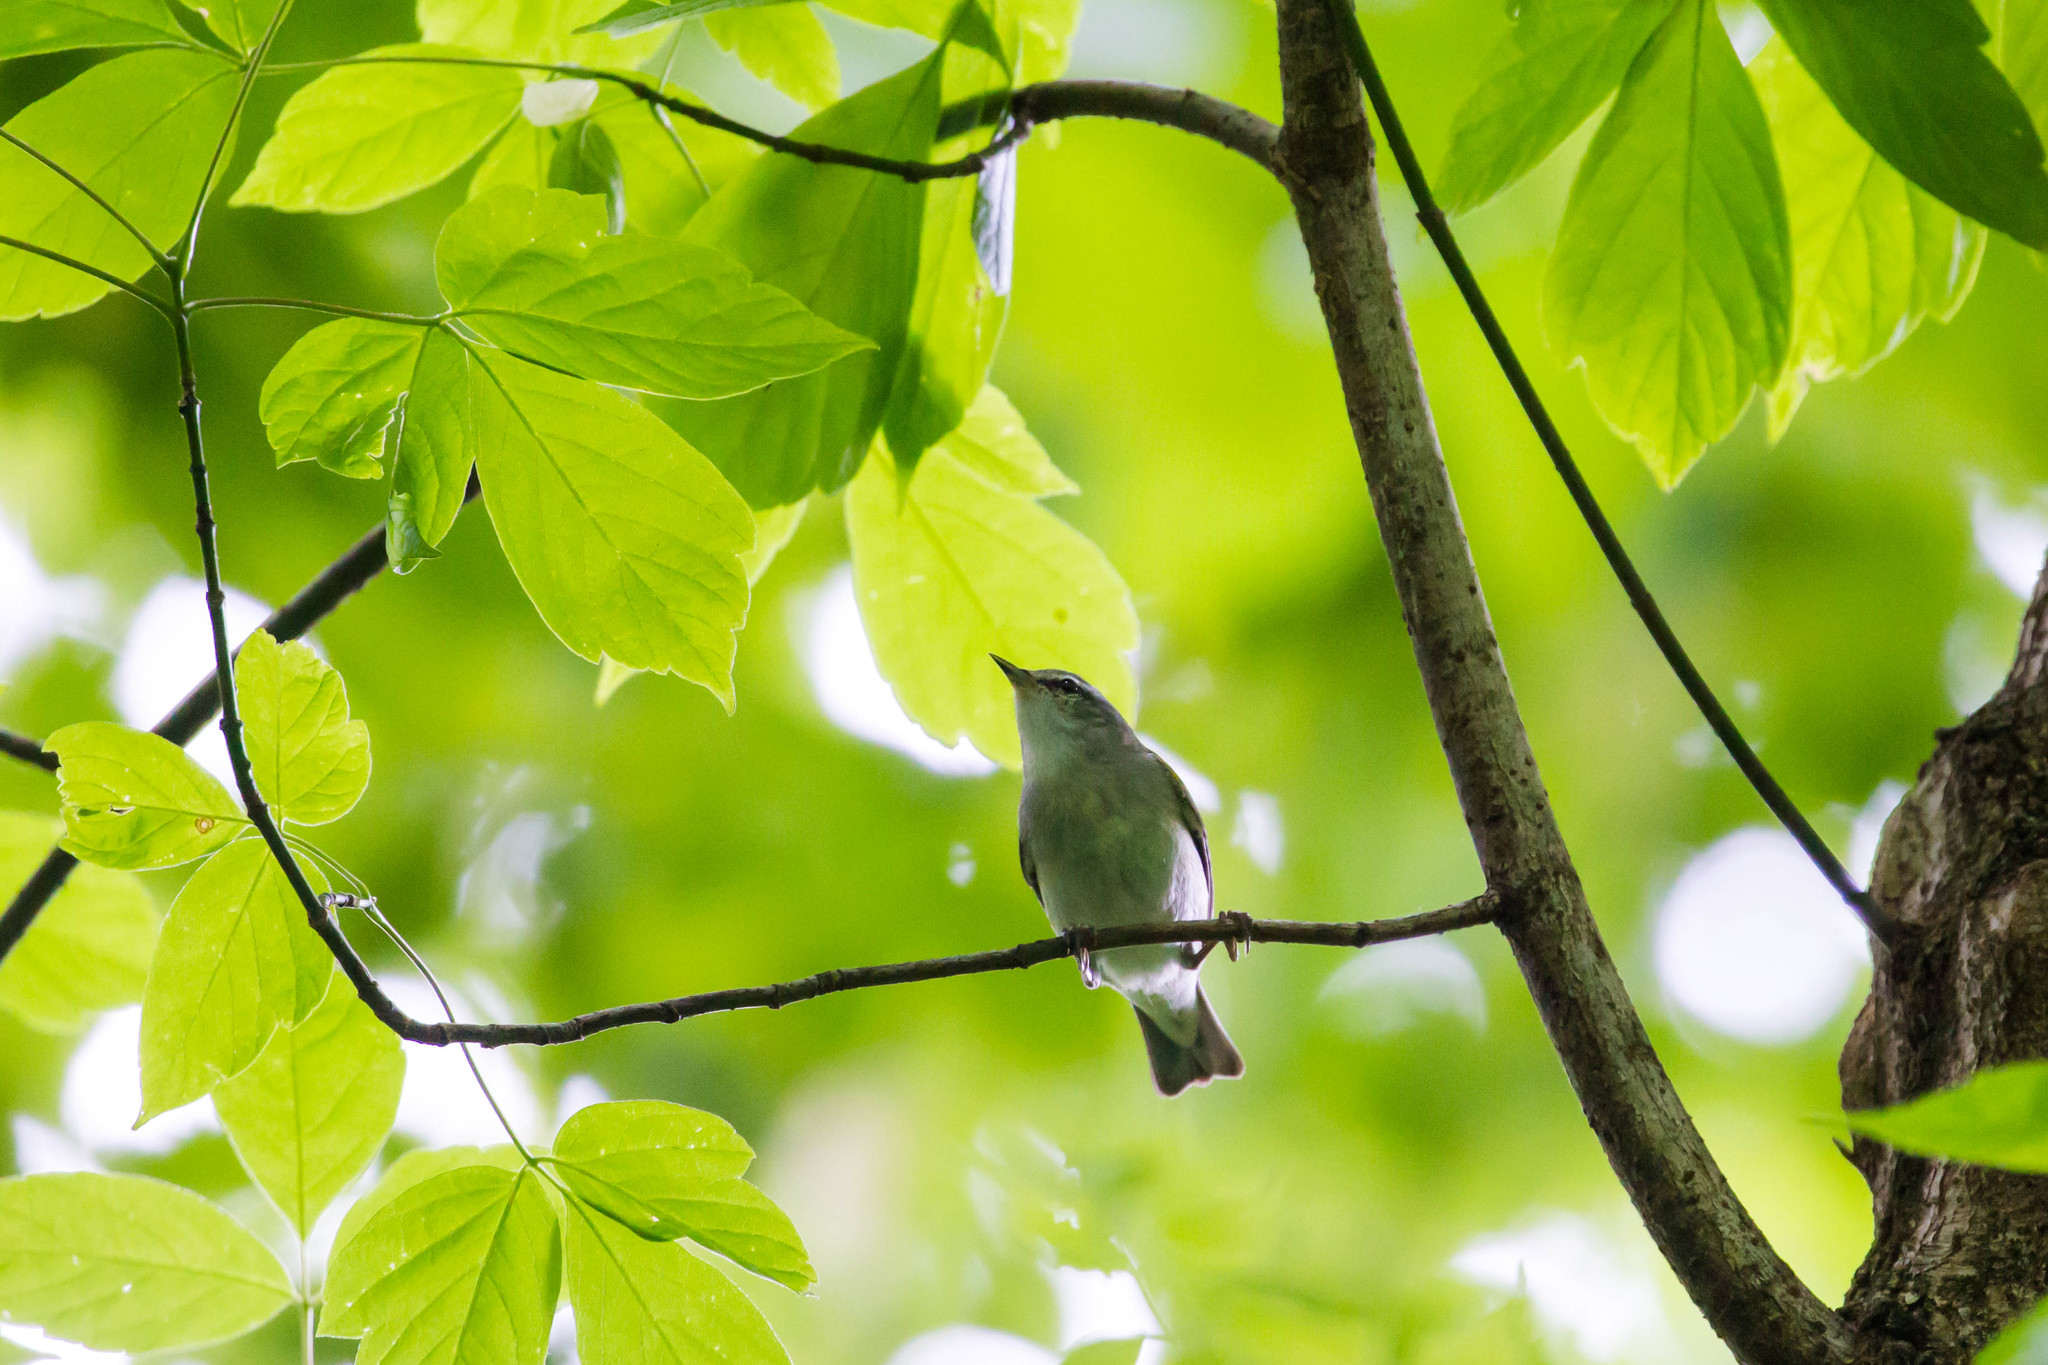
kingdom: Animalia
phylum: Chordata
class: Aves
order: Passeriformes
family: Parulidae
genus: Leiothlypis
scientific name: Leiothlypis peregrina
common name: Tennessee warbler
